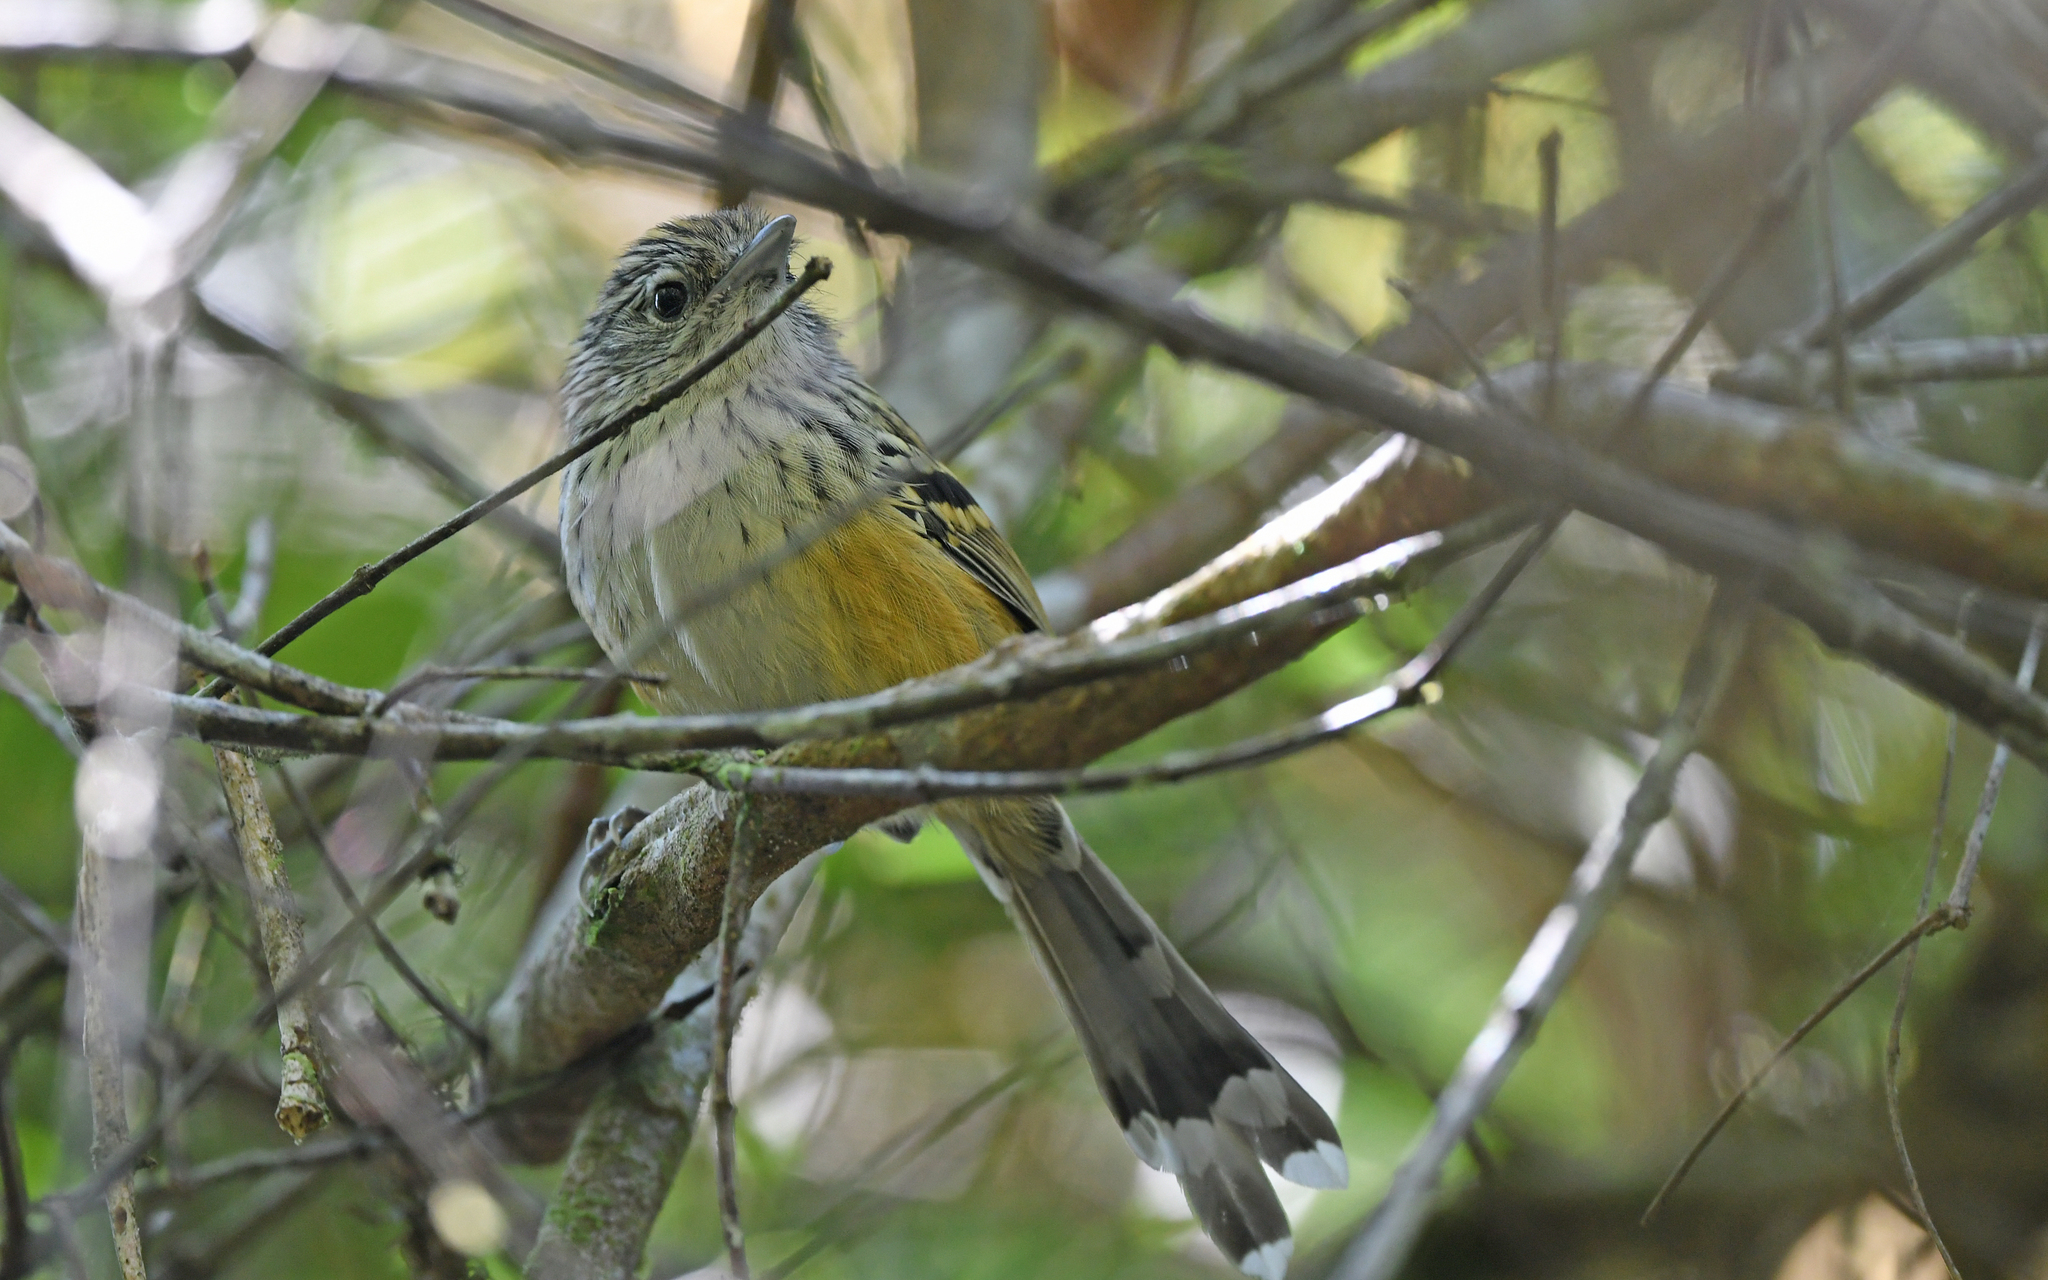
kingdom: Animalia
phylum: Chordata
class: Aves
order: Passeriformes
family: Thamnophilidae
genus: Drymophila
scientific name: Drymophila klagesi
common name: Klages's antbird
